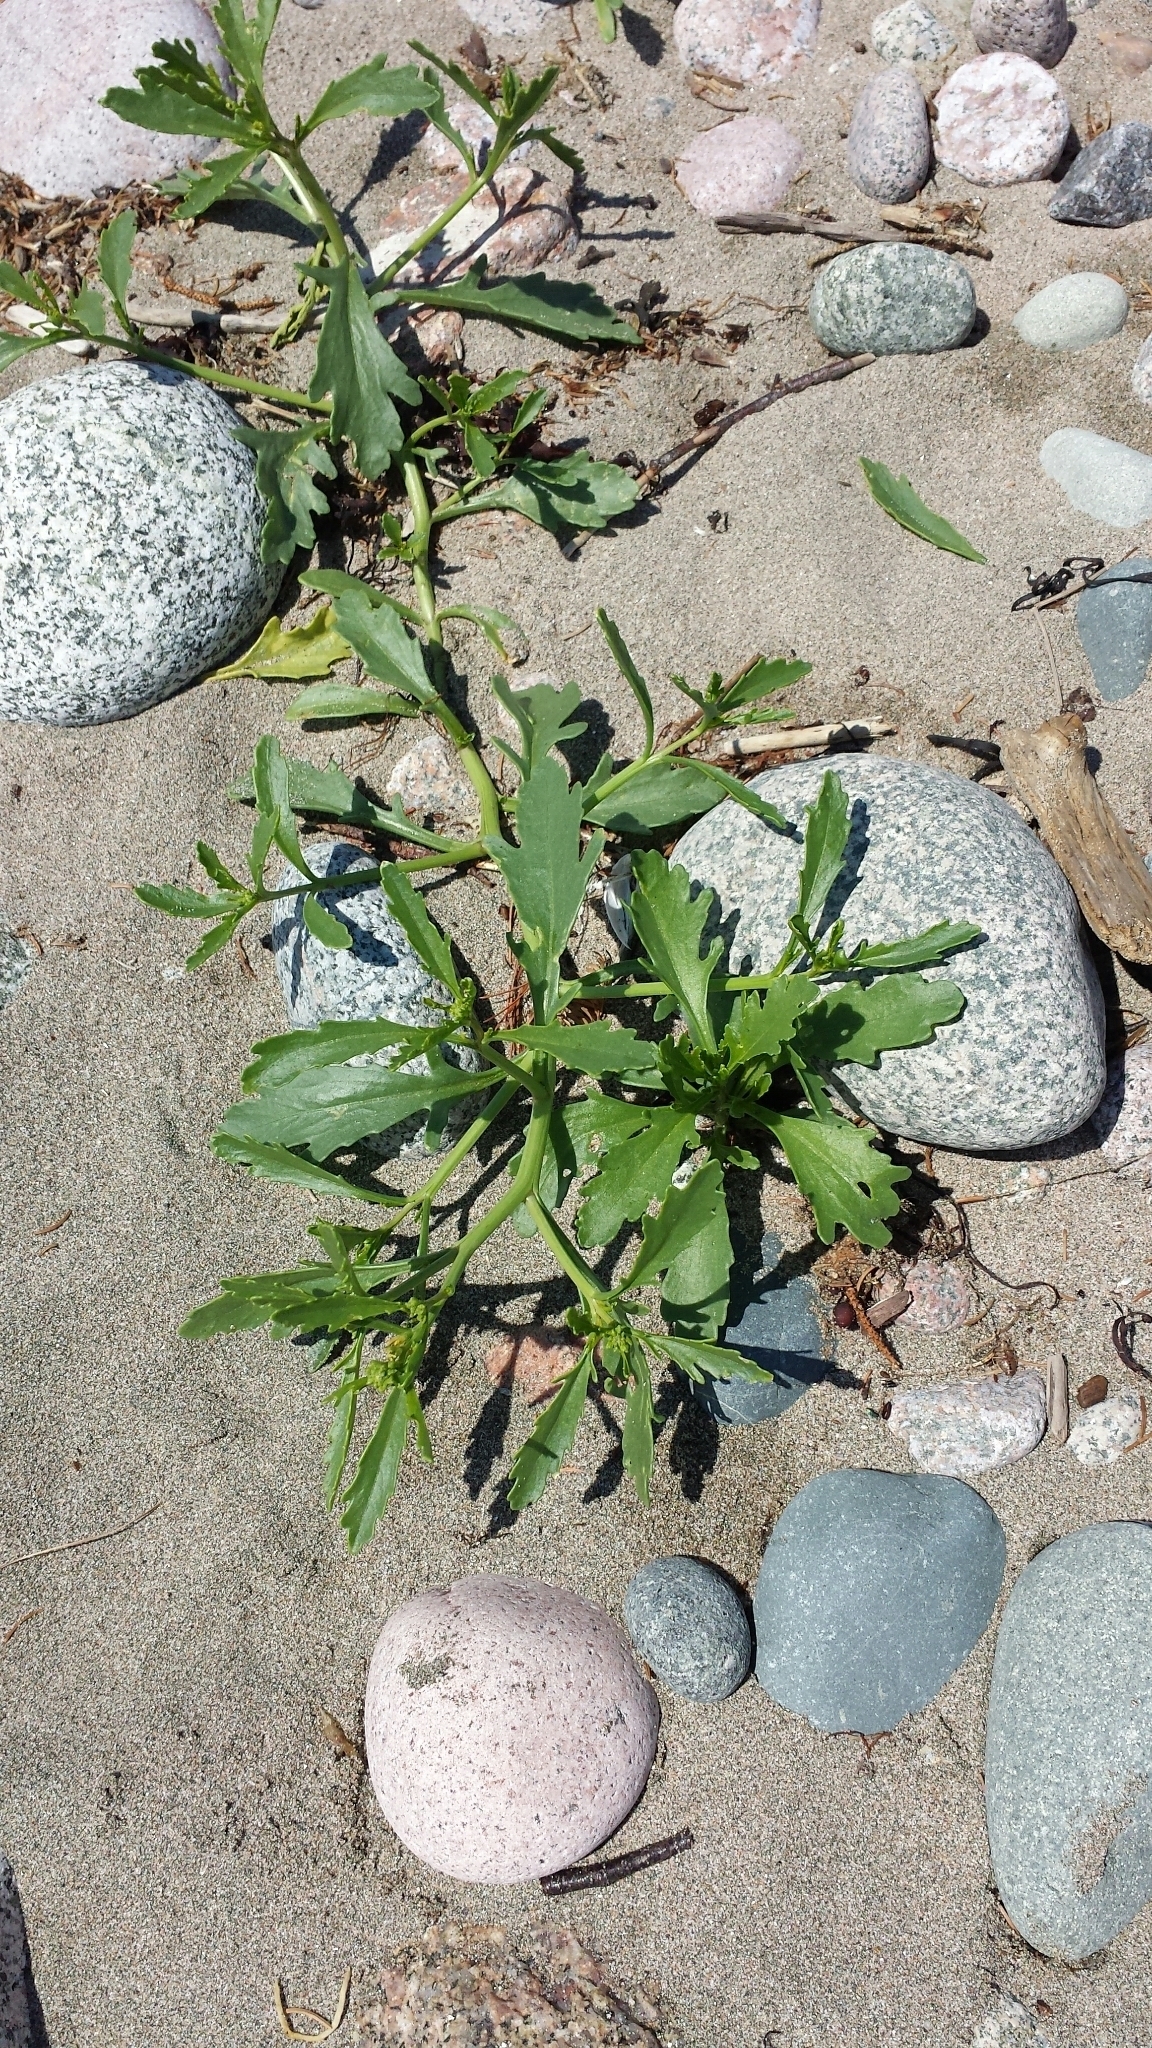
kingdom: Plantae
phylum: Tracheophyta
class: Magnoliopsida
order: Brassicales
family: Brassicaceae
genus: Cakile
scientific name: Cakile edentula
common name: American sea rocket
